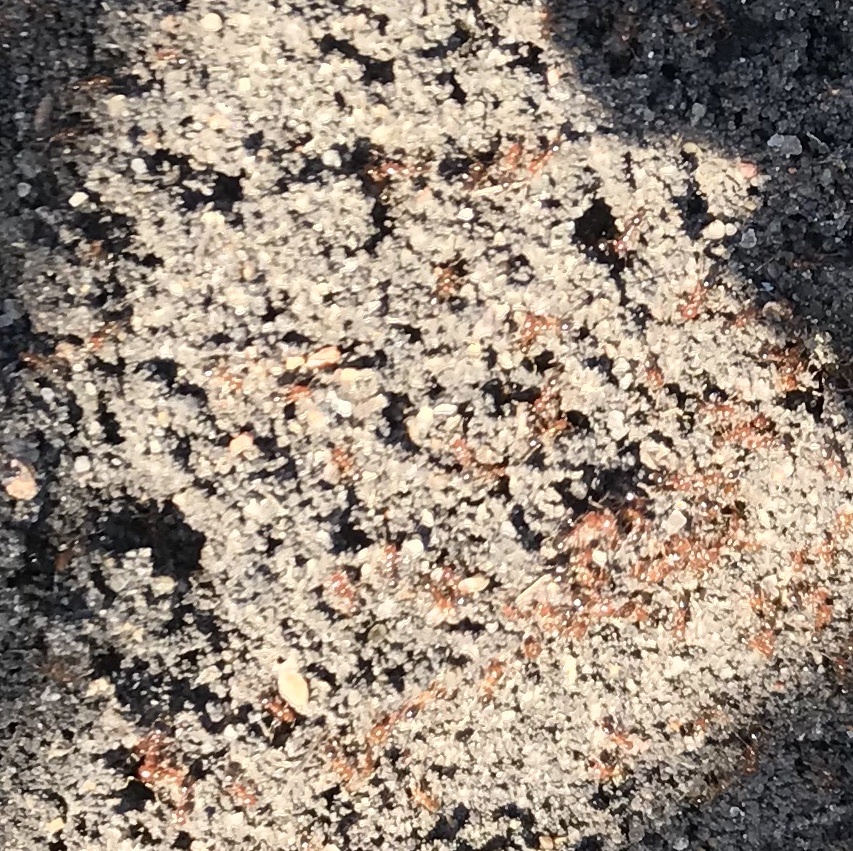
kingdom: Animalia
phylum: Arthropoda
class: Insecta
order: Hymenoptera
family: Formicidae
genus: Solenopsis
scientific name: Solenopsis invicta
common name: Red imported fire ant
